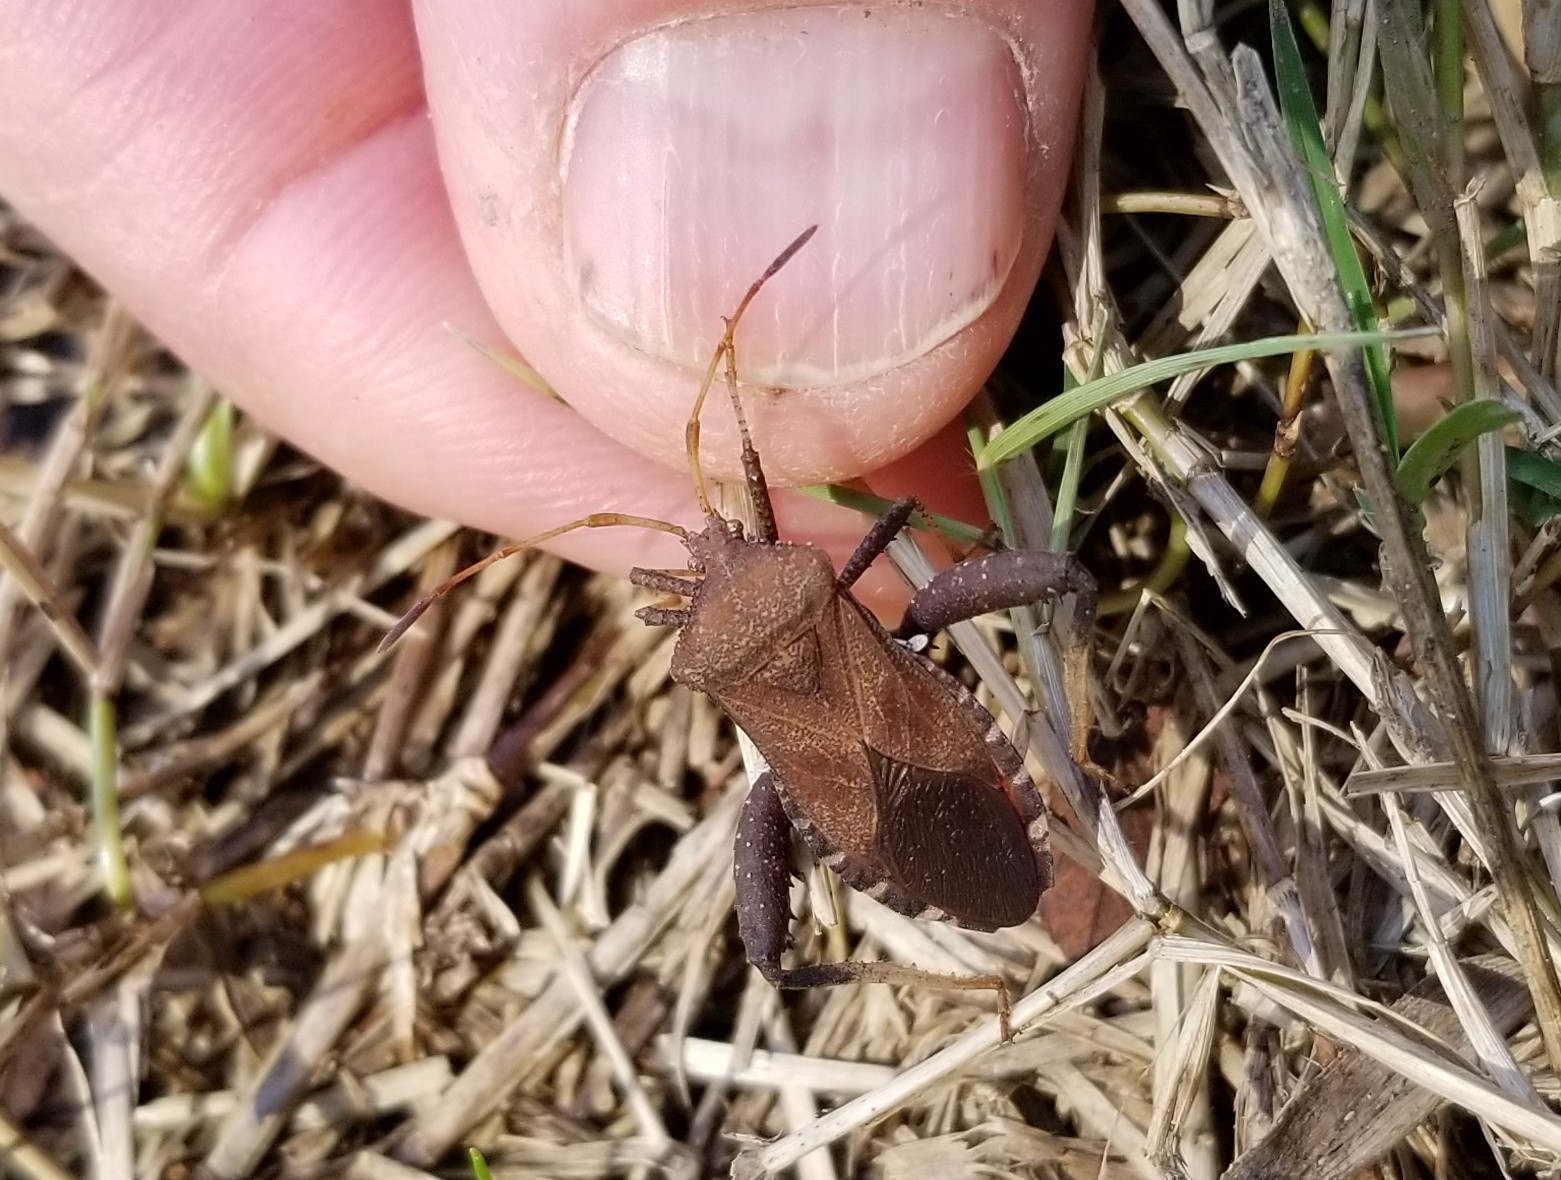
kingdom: Animalia
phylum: Arthropoda
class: Insecta
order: Hemiptera
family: Coreidae
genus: Euthochtha
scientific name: Euthochtha galeator
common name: Helmeted squash bug
